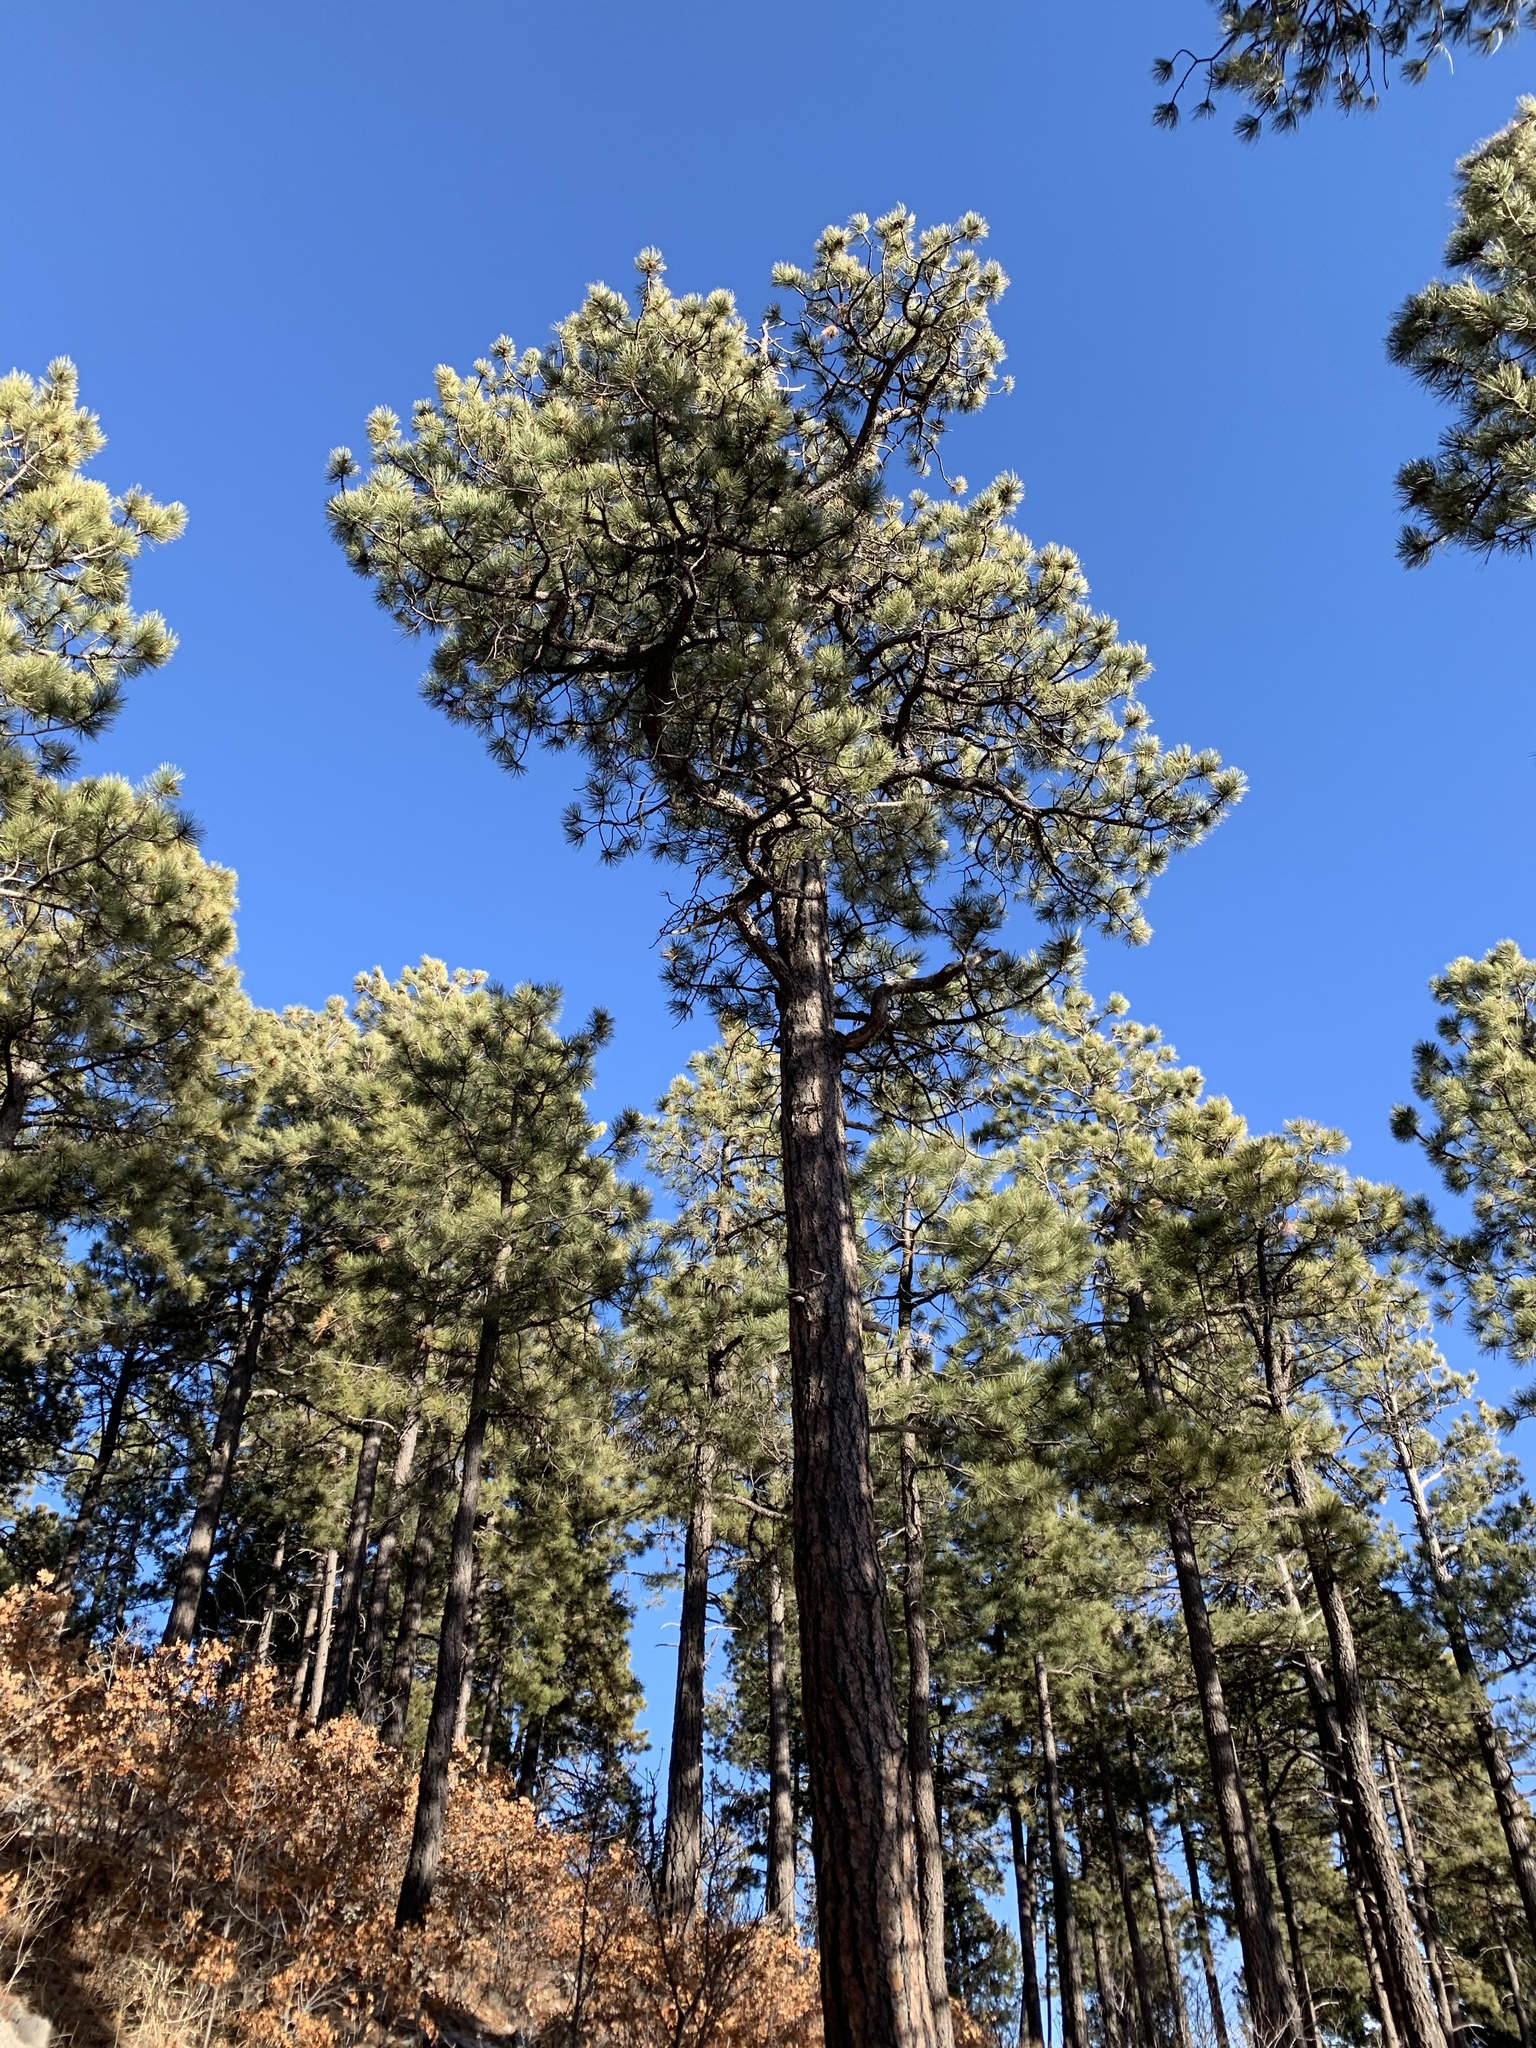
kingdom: Plantae
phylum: Tracheophyta
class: Pinopsida
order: Pinales
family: Pinaceae
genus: Pinus
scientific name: Pinus ponderosa
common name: Western yellow-pine
